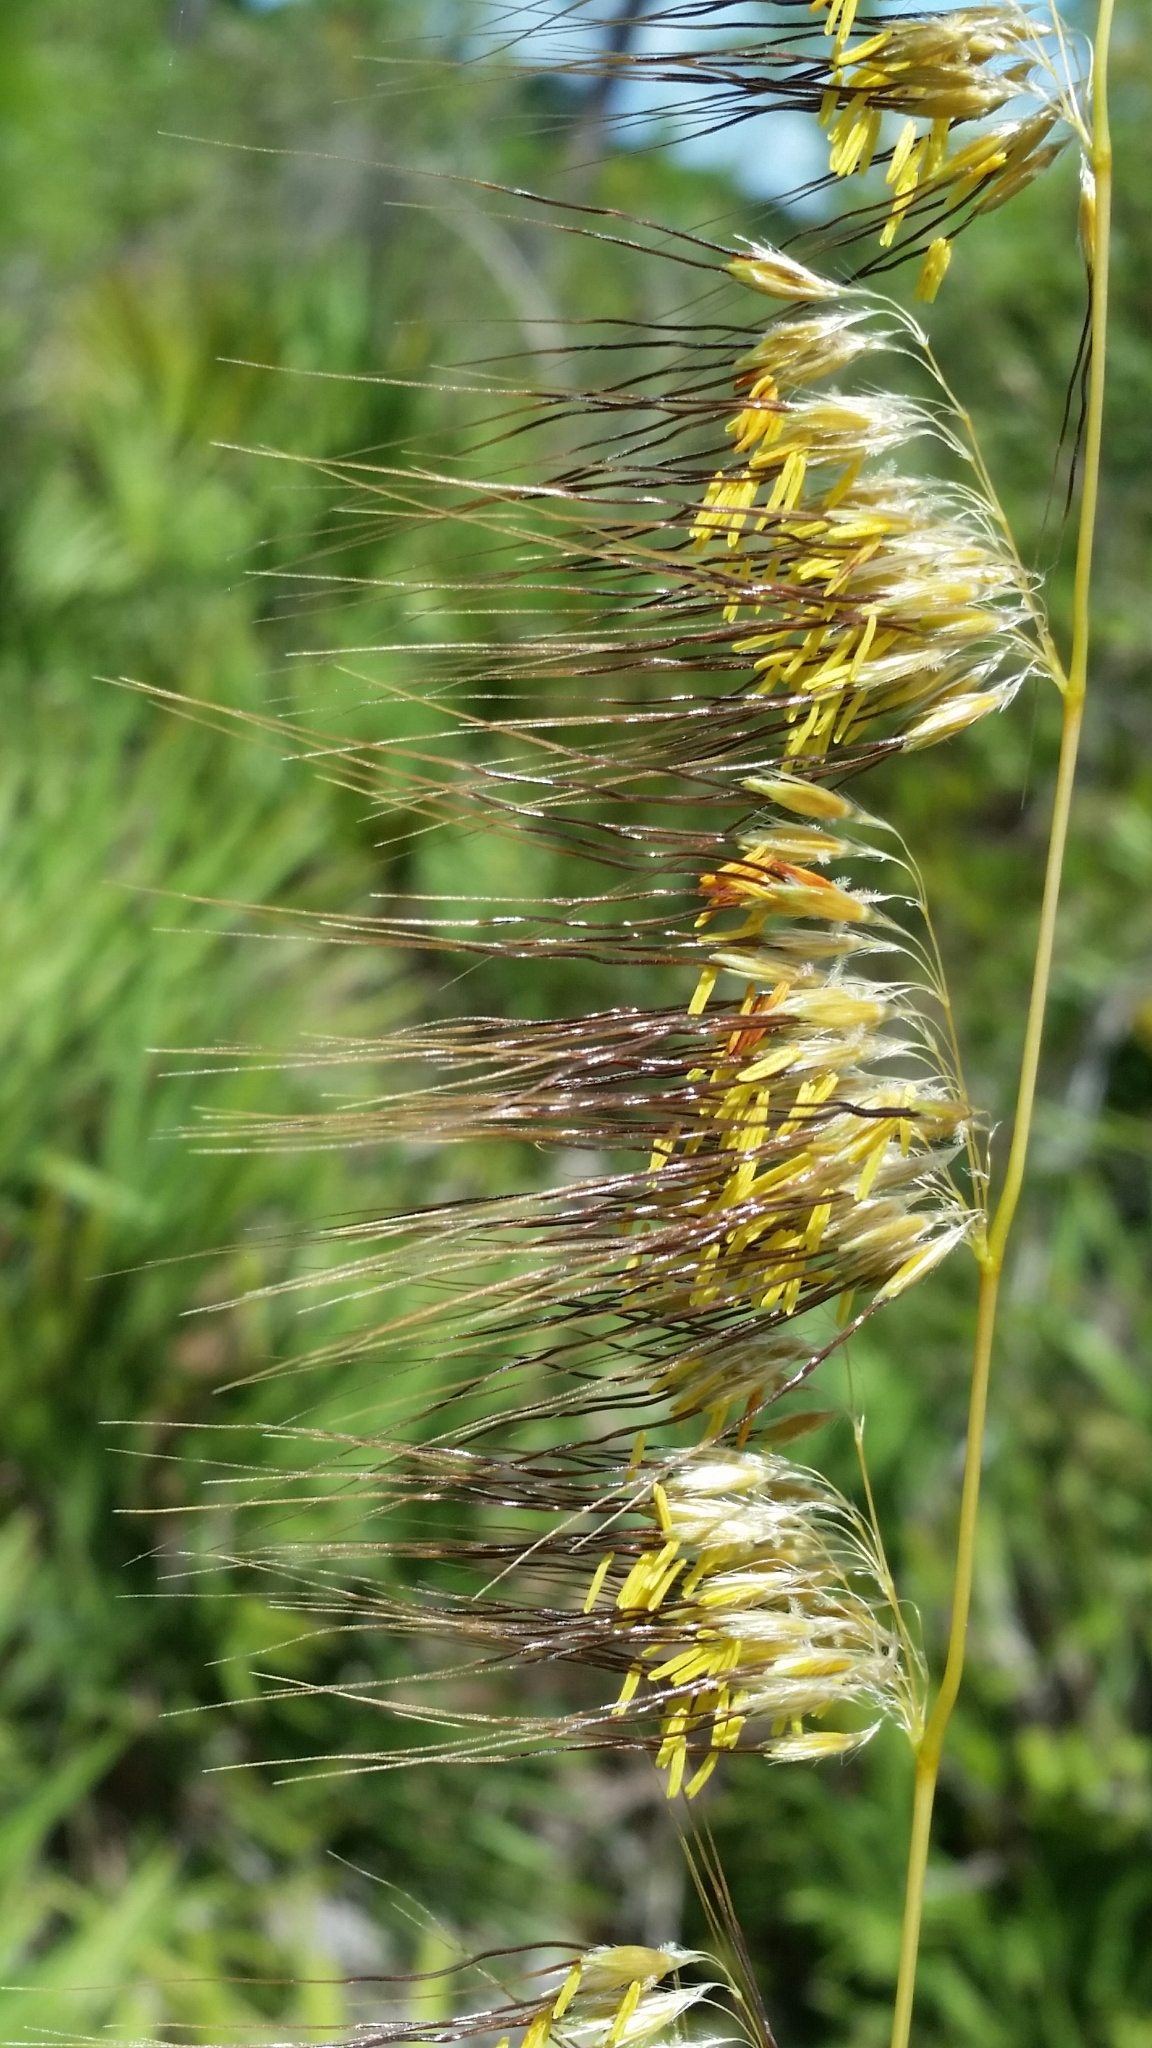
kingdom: Plantae
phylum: Tracheophyta
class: Liliopsida
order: Poales
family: Poaceae
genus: Sorghastrum
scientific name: Sorghastrum secundum
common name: Lopsided indian grass
